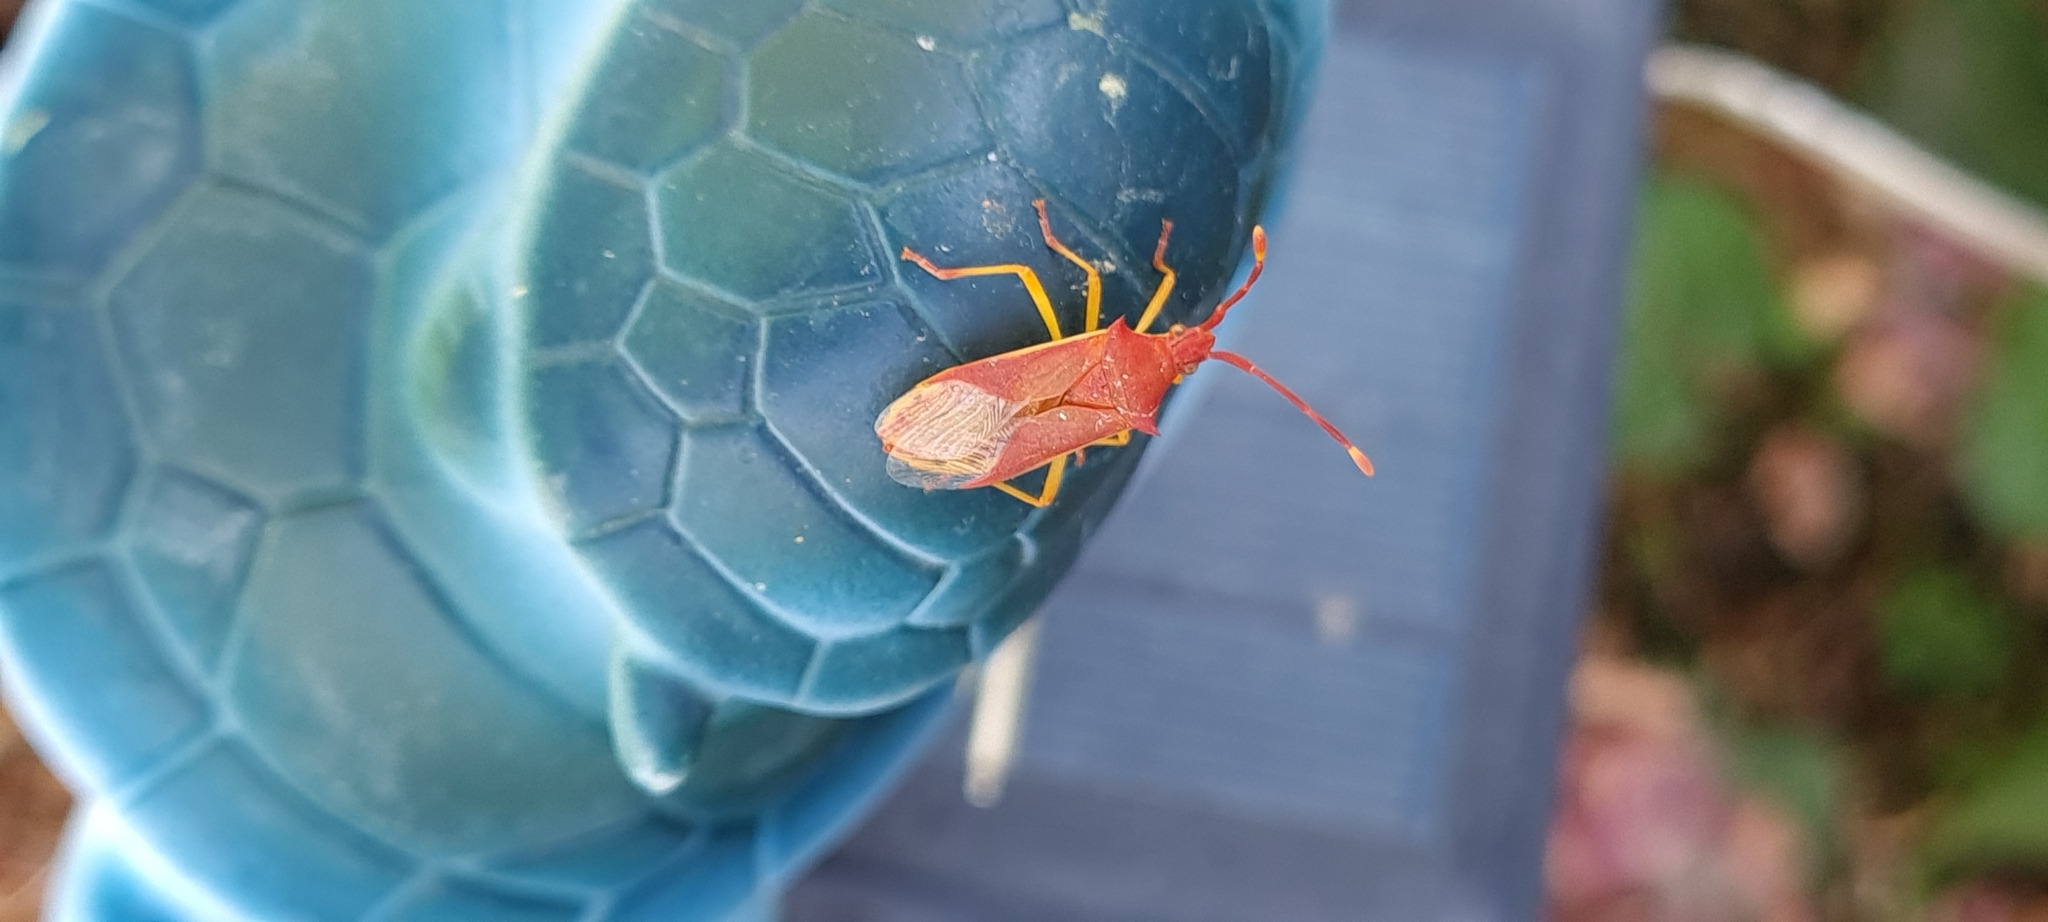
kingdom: Animalia
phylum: Arthropoda
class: Insecta
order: Hemiptera
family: Coreidae
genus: Plinachtus
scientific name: Plinachtus imitator
